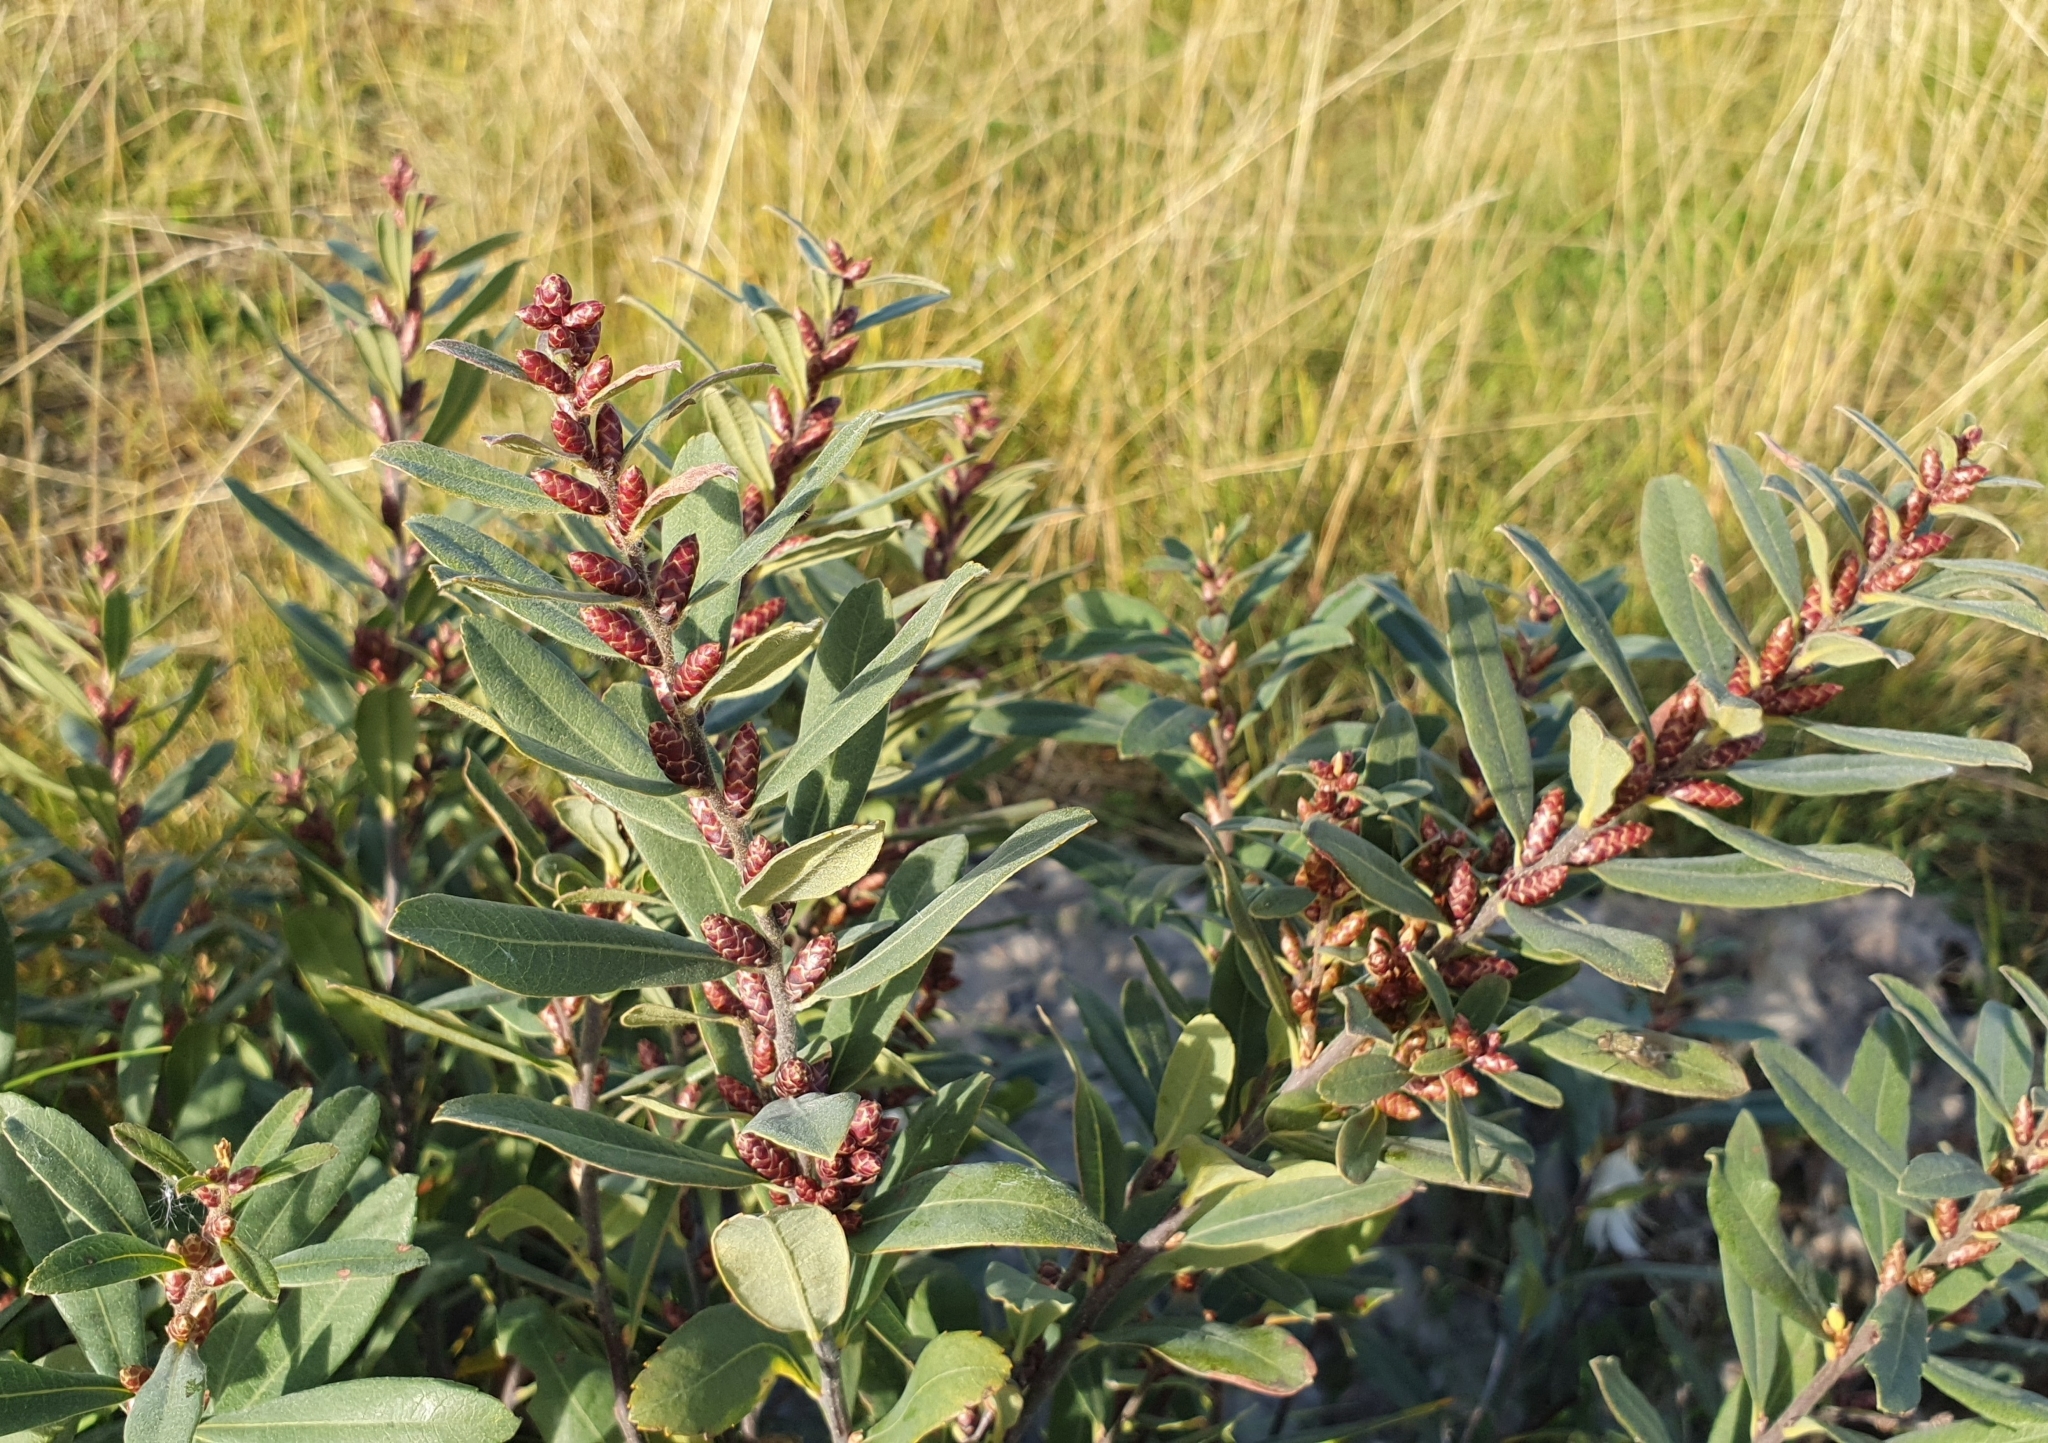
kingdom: Plantae
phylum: Tracheophyta
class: Magnoliopsida
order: Fagales
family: Myricaceae
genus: Myrica
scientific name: Myrica gale
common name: Sweet gale
